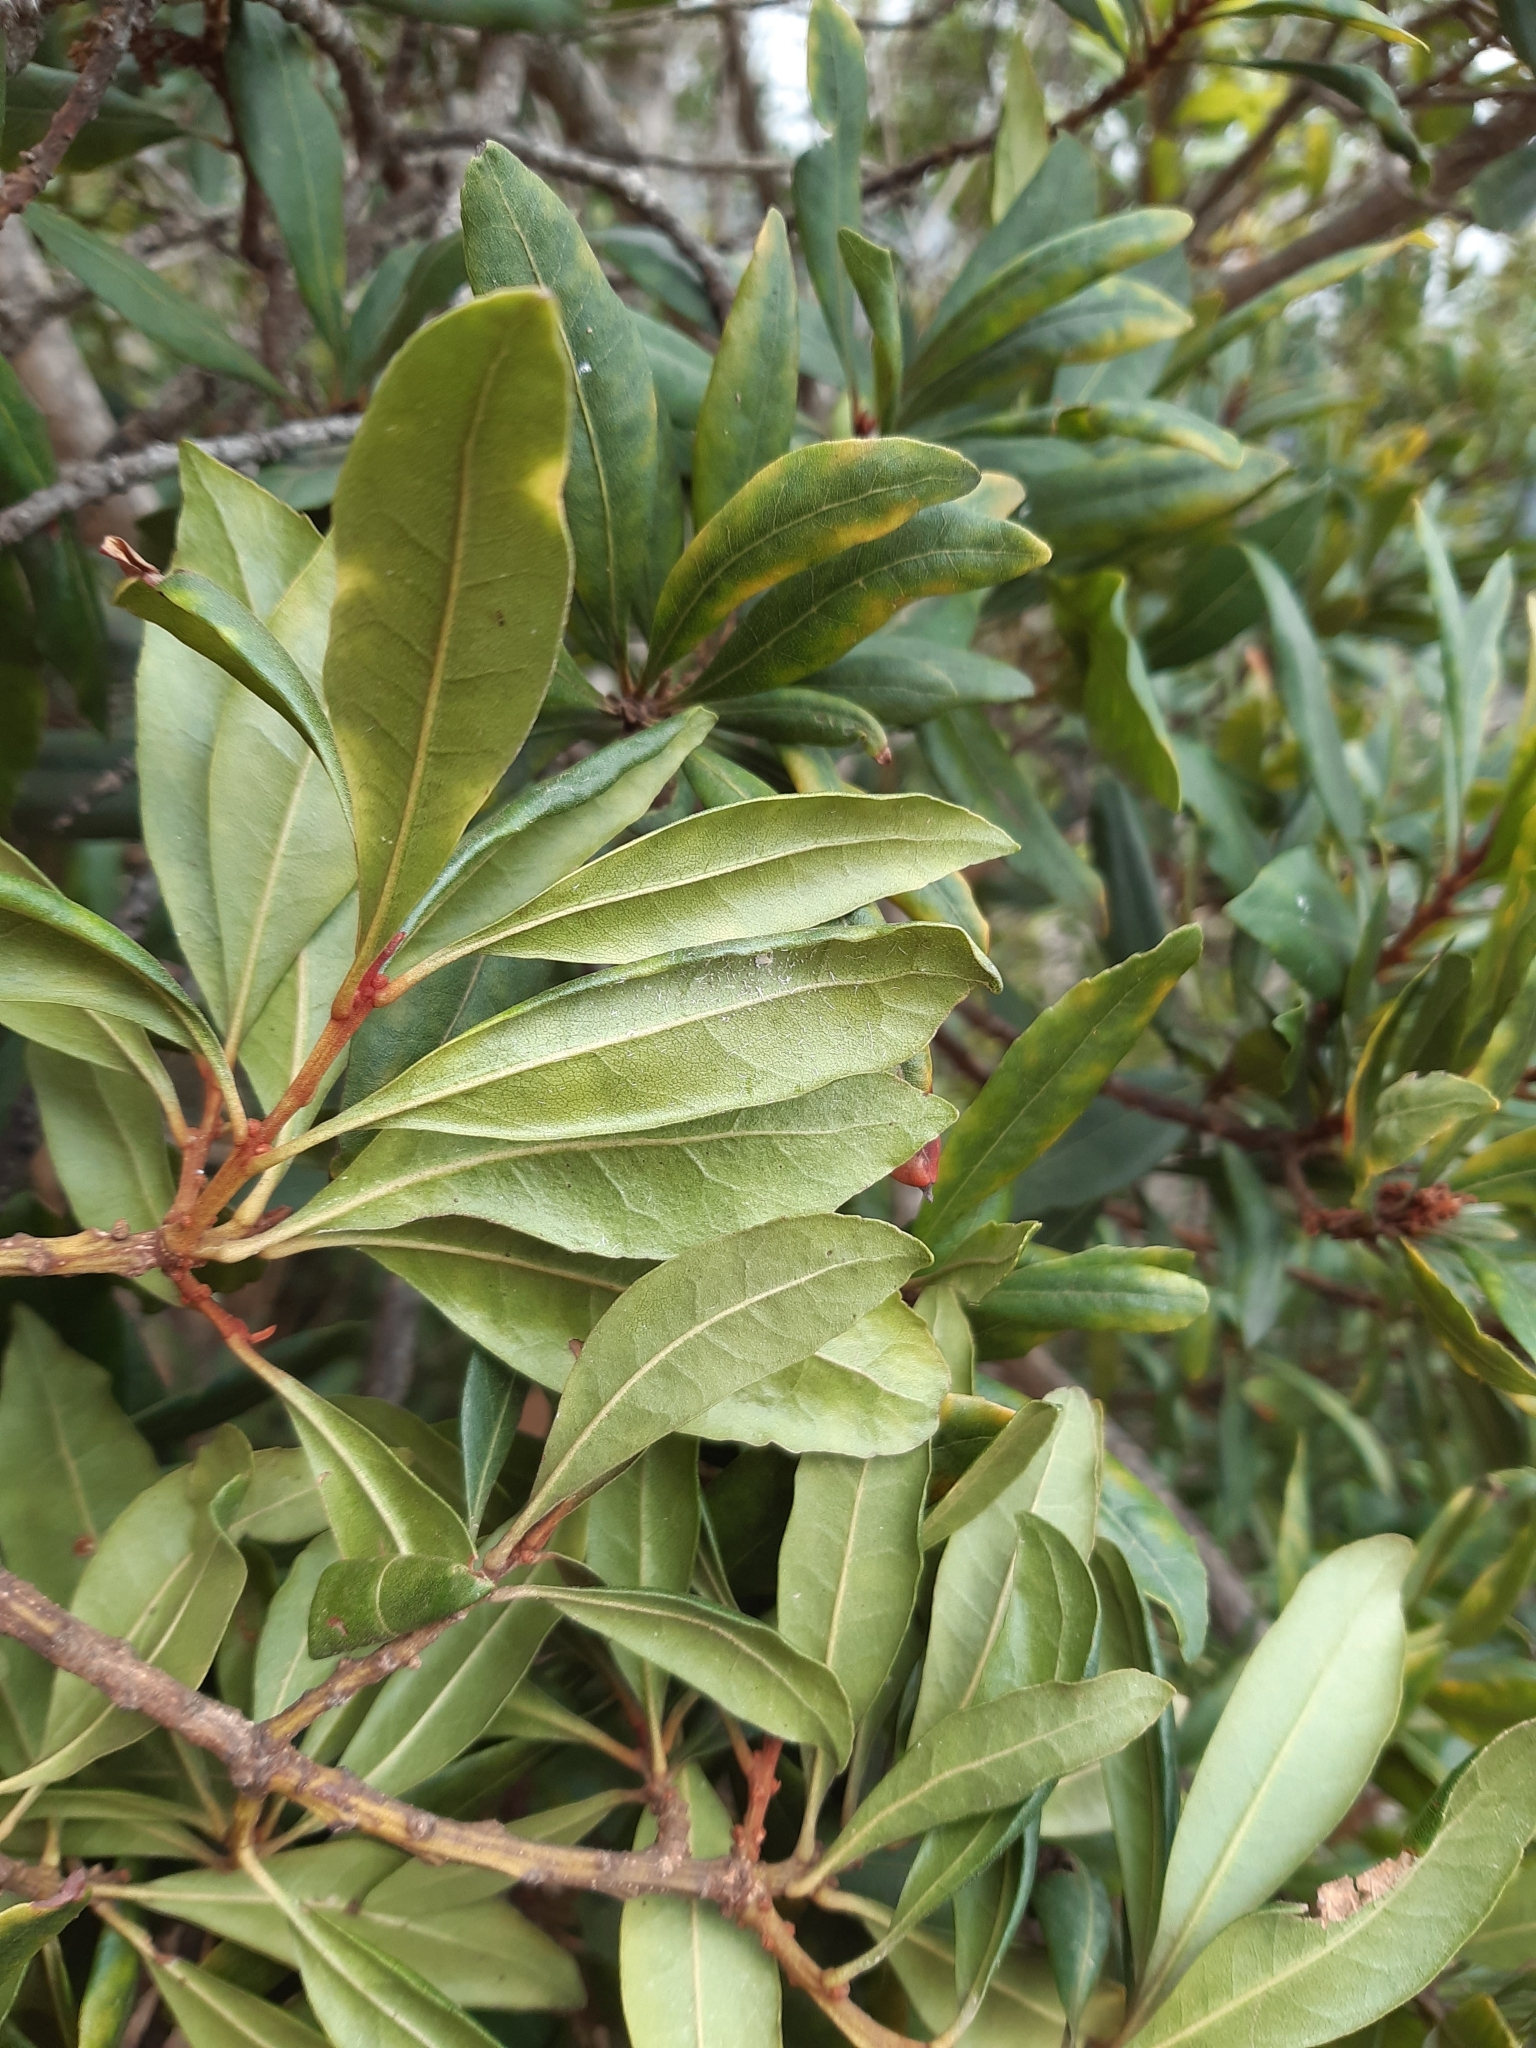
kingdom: Plantae
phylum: Tracheophyta
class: Magnoliopsida
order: Fagales
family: Myricaceae
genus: Morella
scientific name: Morella faya
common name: Firetree
